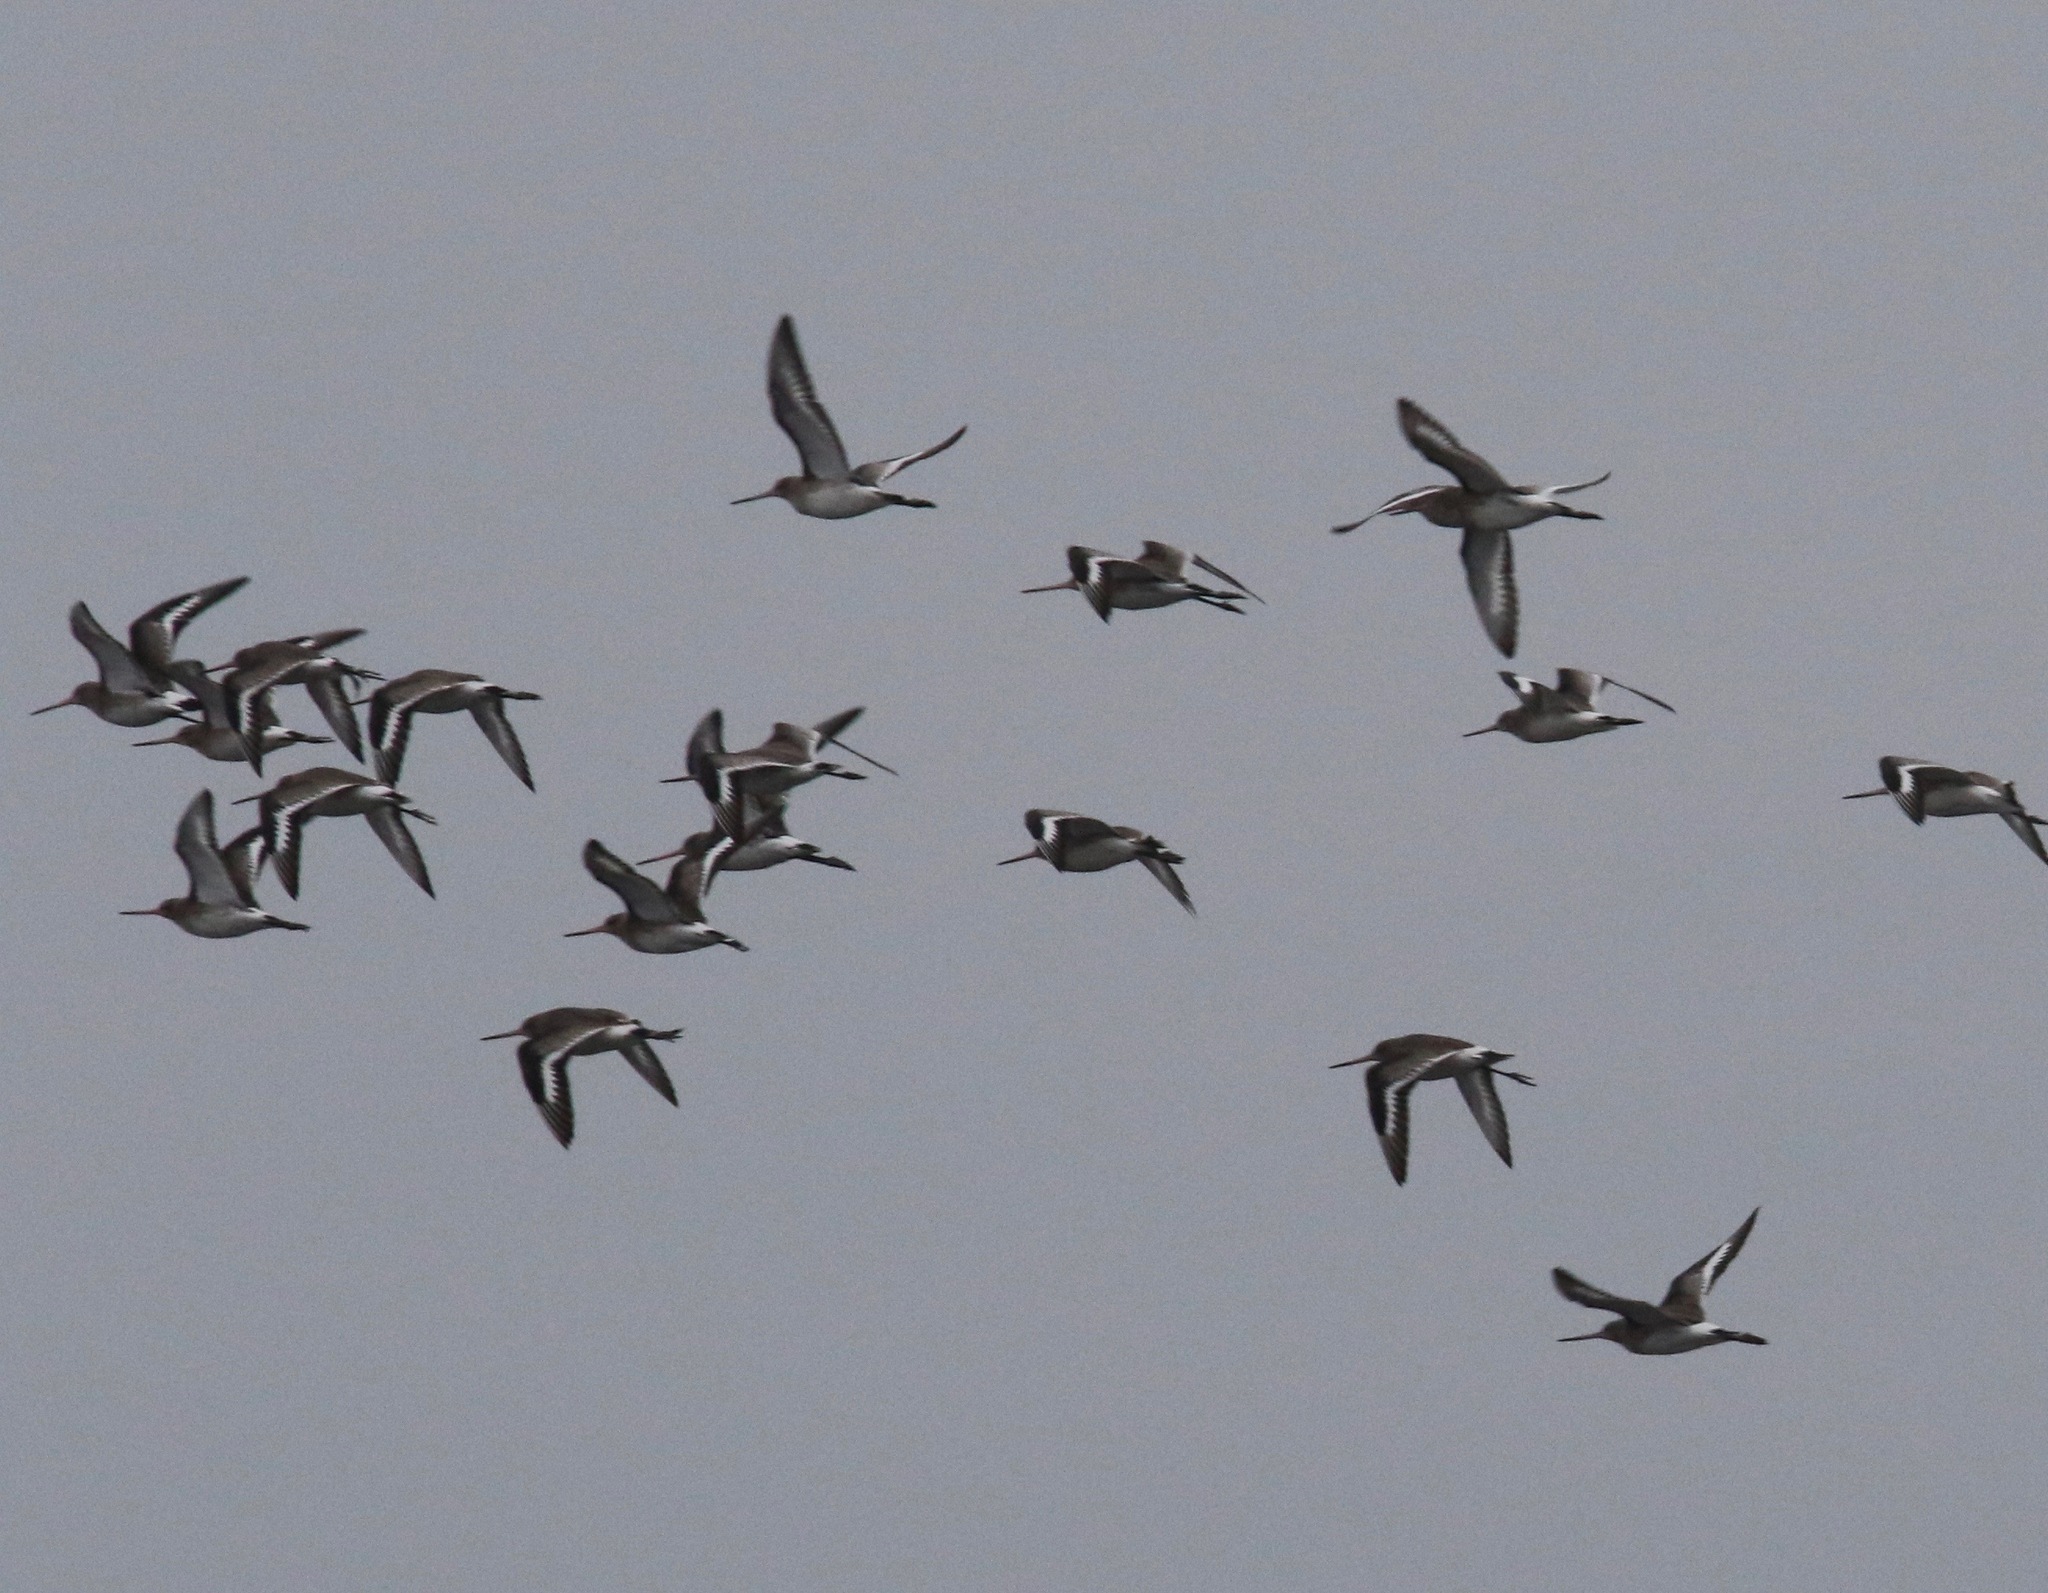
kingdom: Animalia
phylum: Chordata
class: Aves
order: Charadriiformes
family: Scolopacidae
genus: Limosa
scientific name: Limosa limosa
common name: Black-tailed godwit
